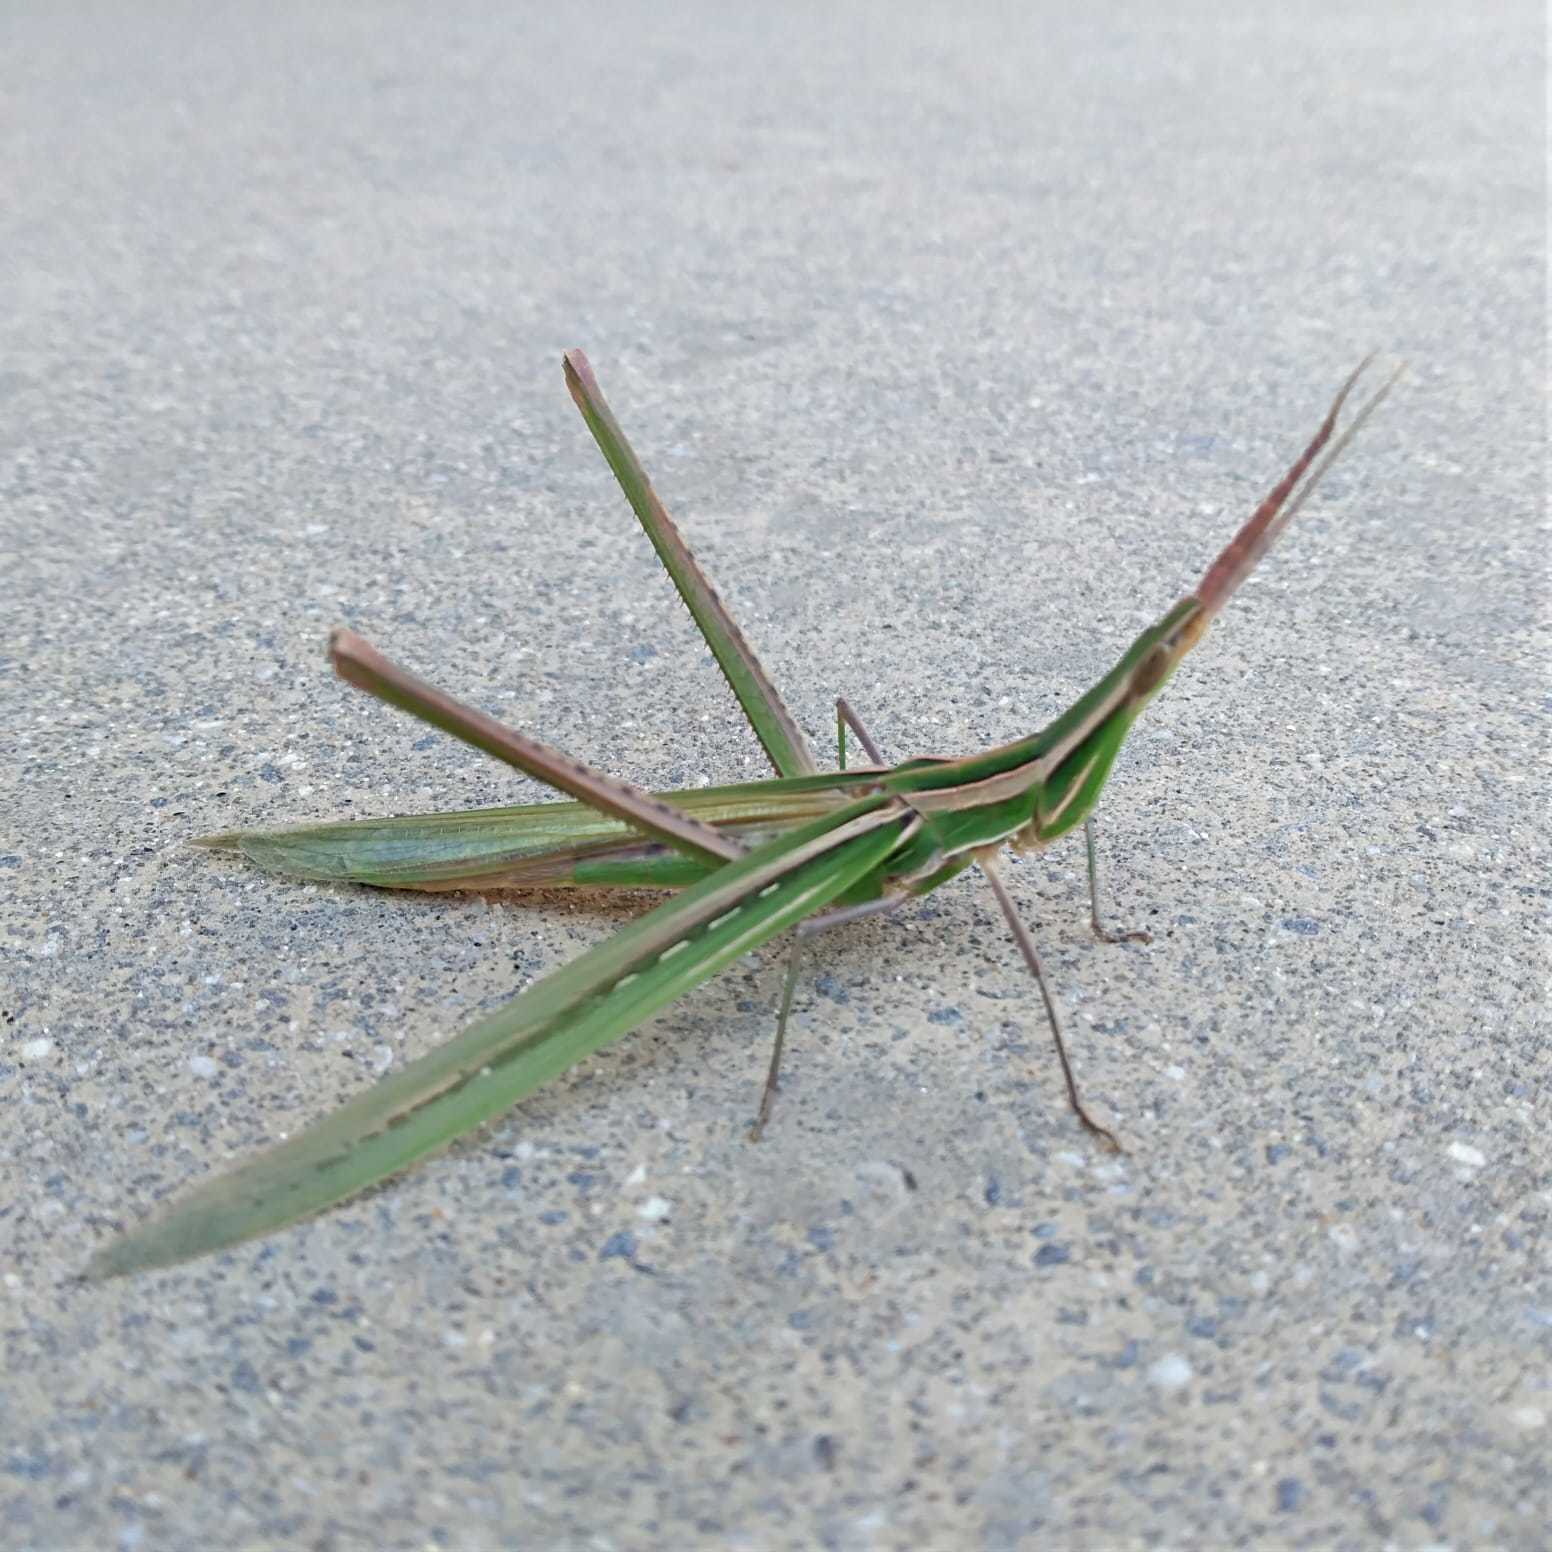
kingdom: Animalia
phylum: Arthropoda
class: Insecta
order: Orthoptera
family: Acrididae
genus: Acrida
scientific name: Acrida ungarica
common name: Common cone-headed grasshopper
